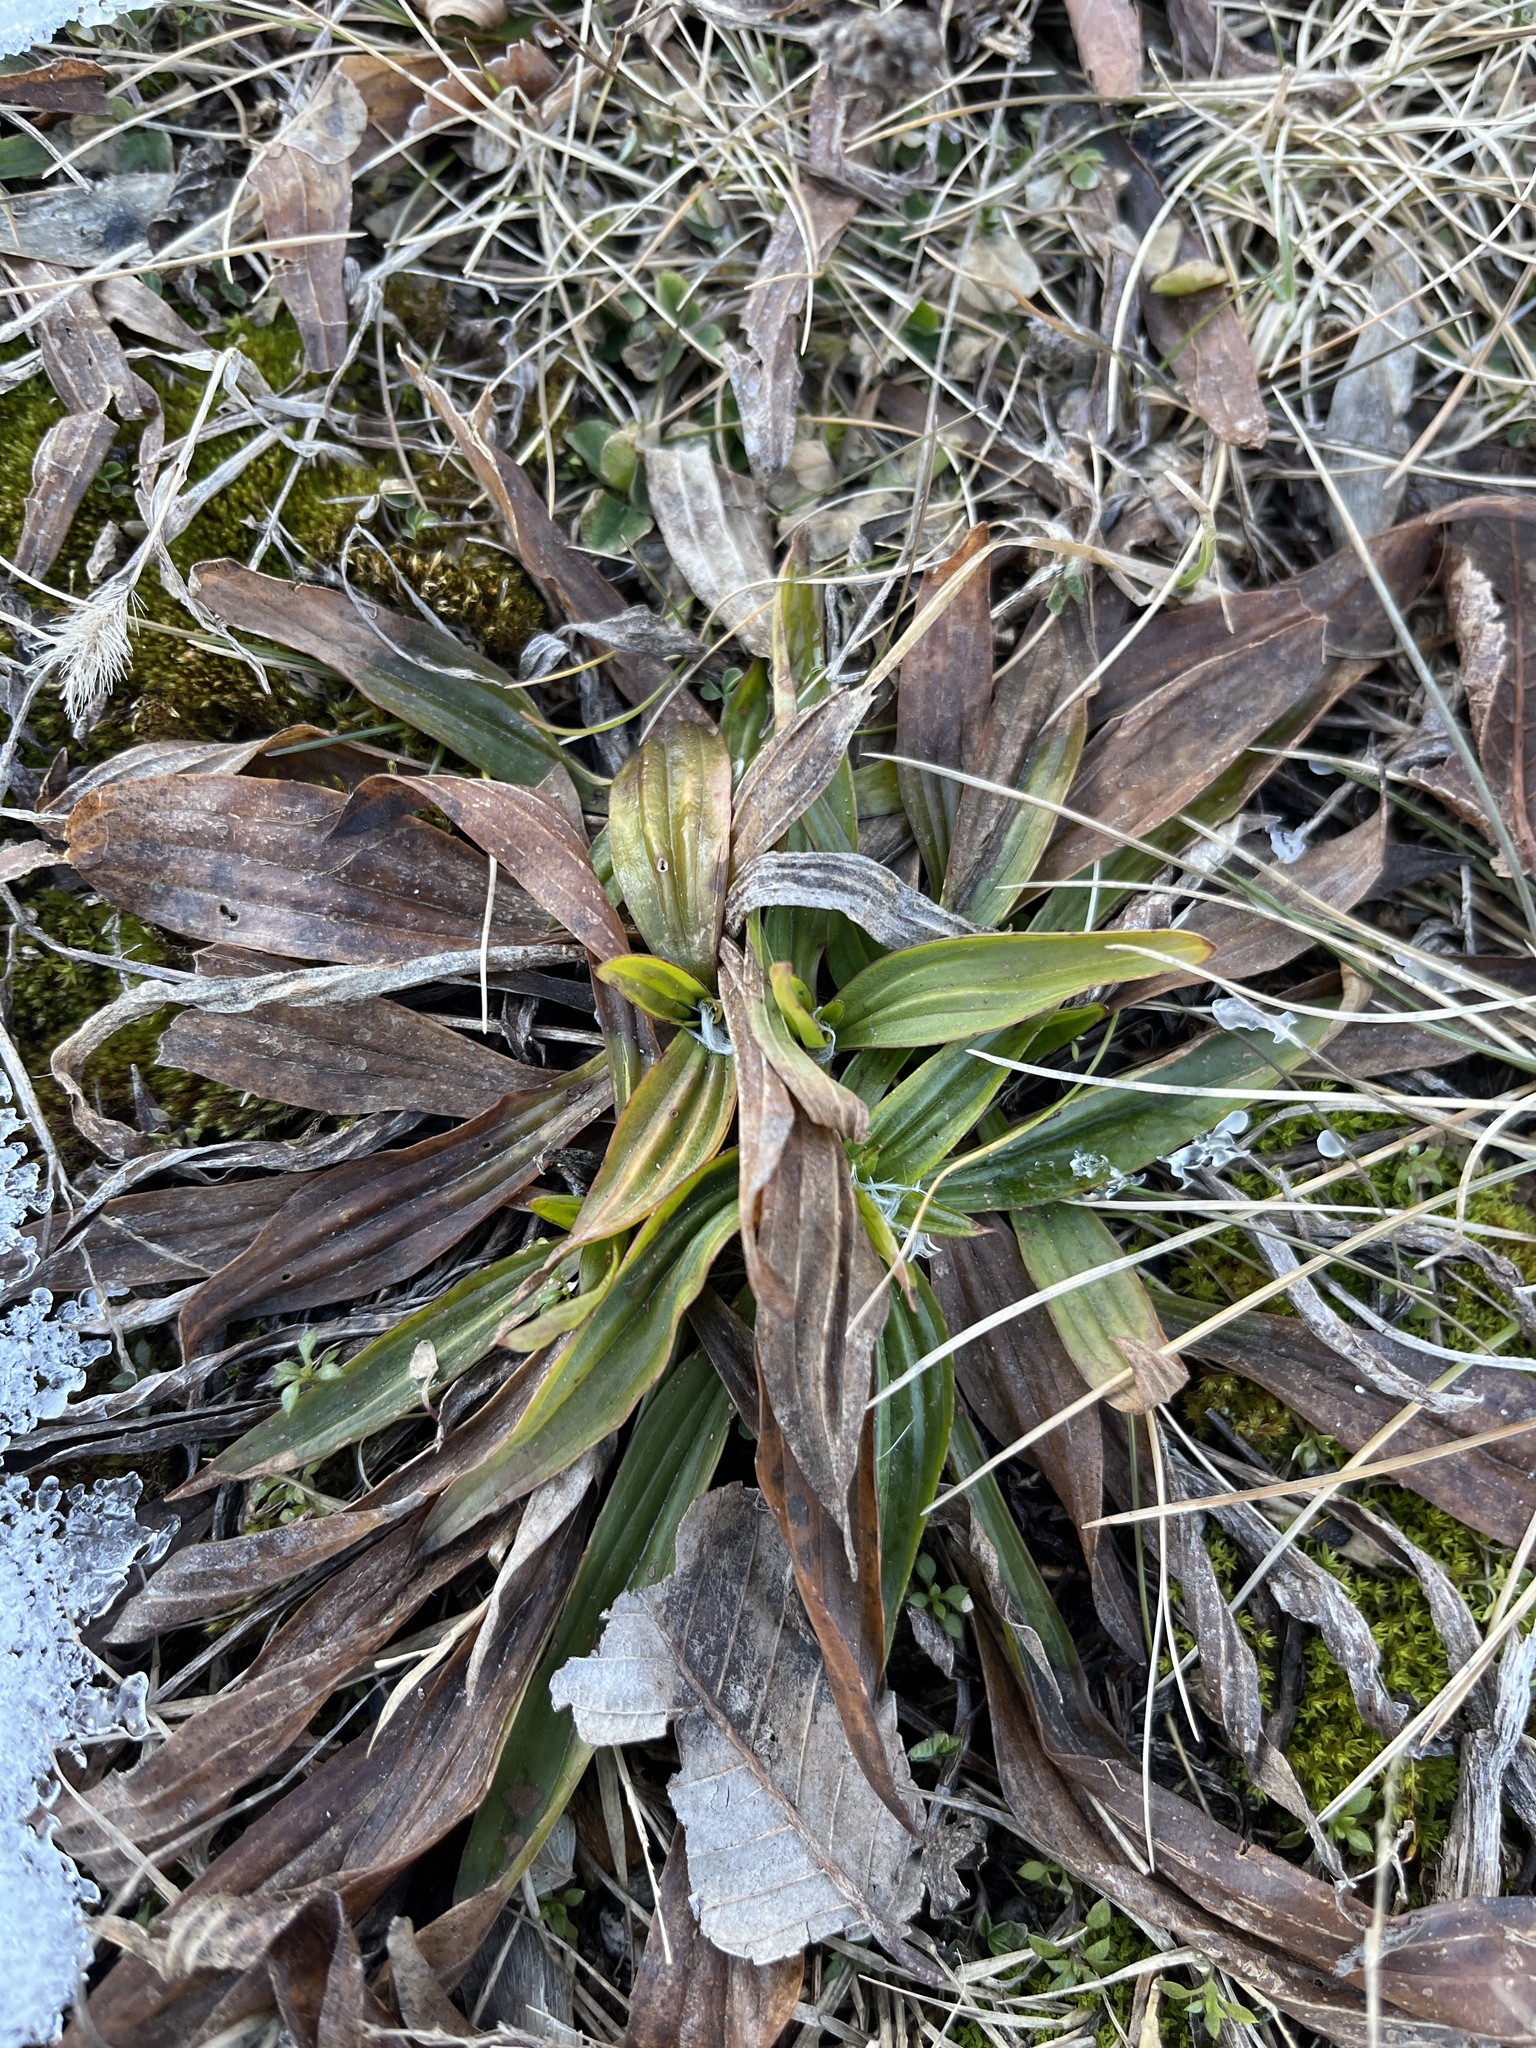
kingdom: Plantae
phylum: Tracheophyta
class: Magnoliopsida
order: Lamiales
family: Plantaginaceae
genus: Plantago
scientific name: Plantago lanceolata
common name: Ribwort plantain
